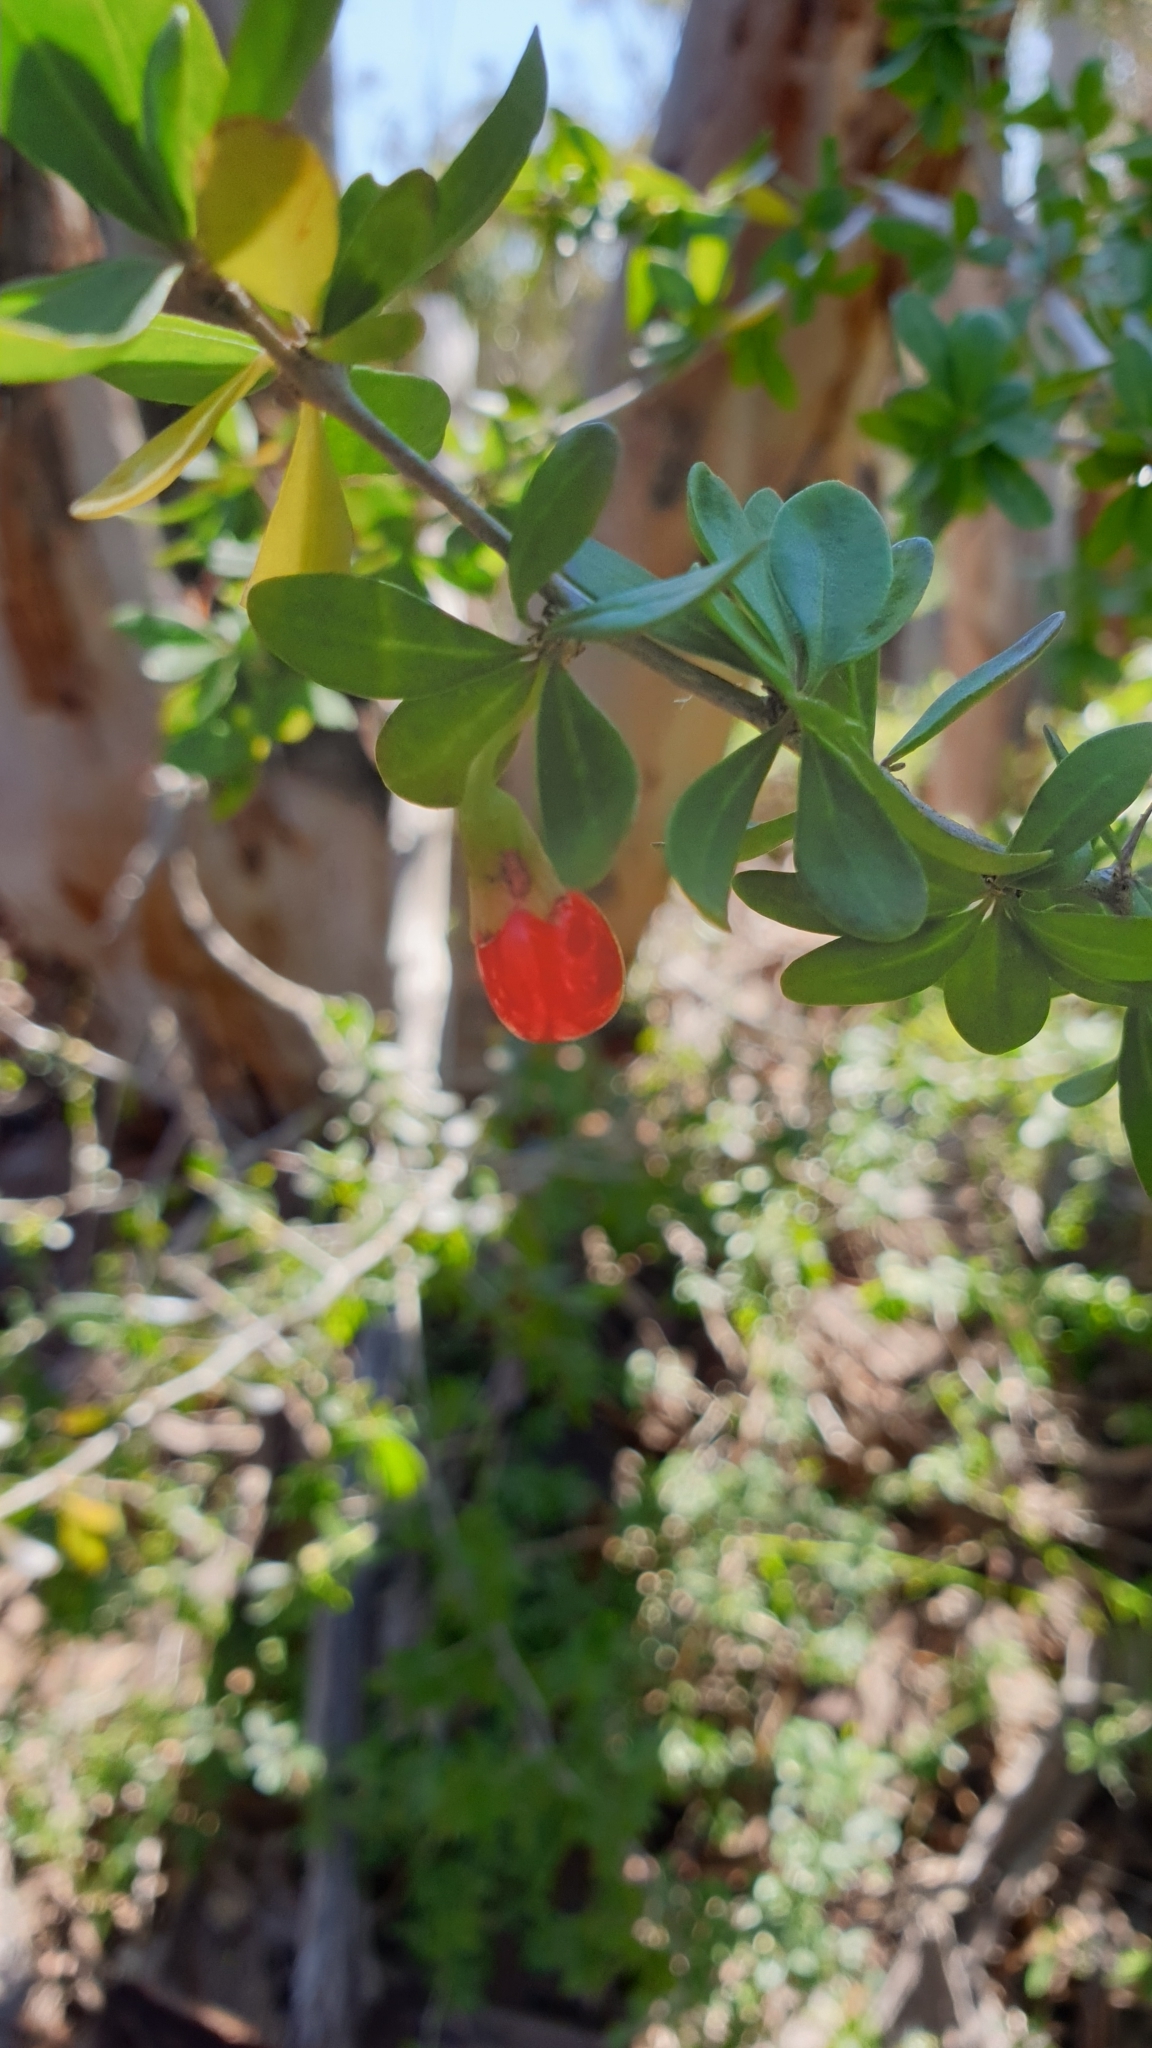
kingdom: Plantae
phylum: Tracheophyta
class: Magnoliopsida
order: Solanales
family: Solanaceae
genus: Lycium
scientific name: Lycium ferocissimum
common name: African boxthorn
